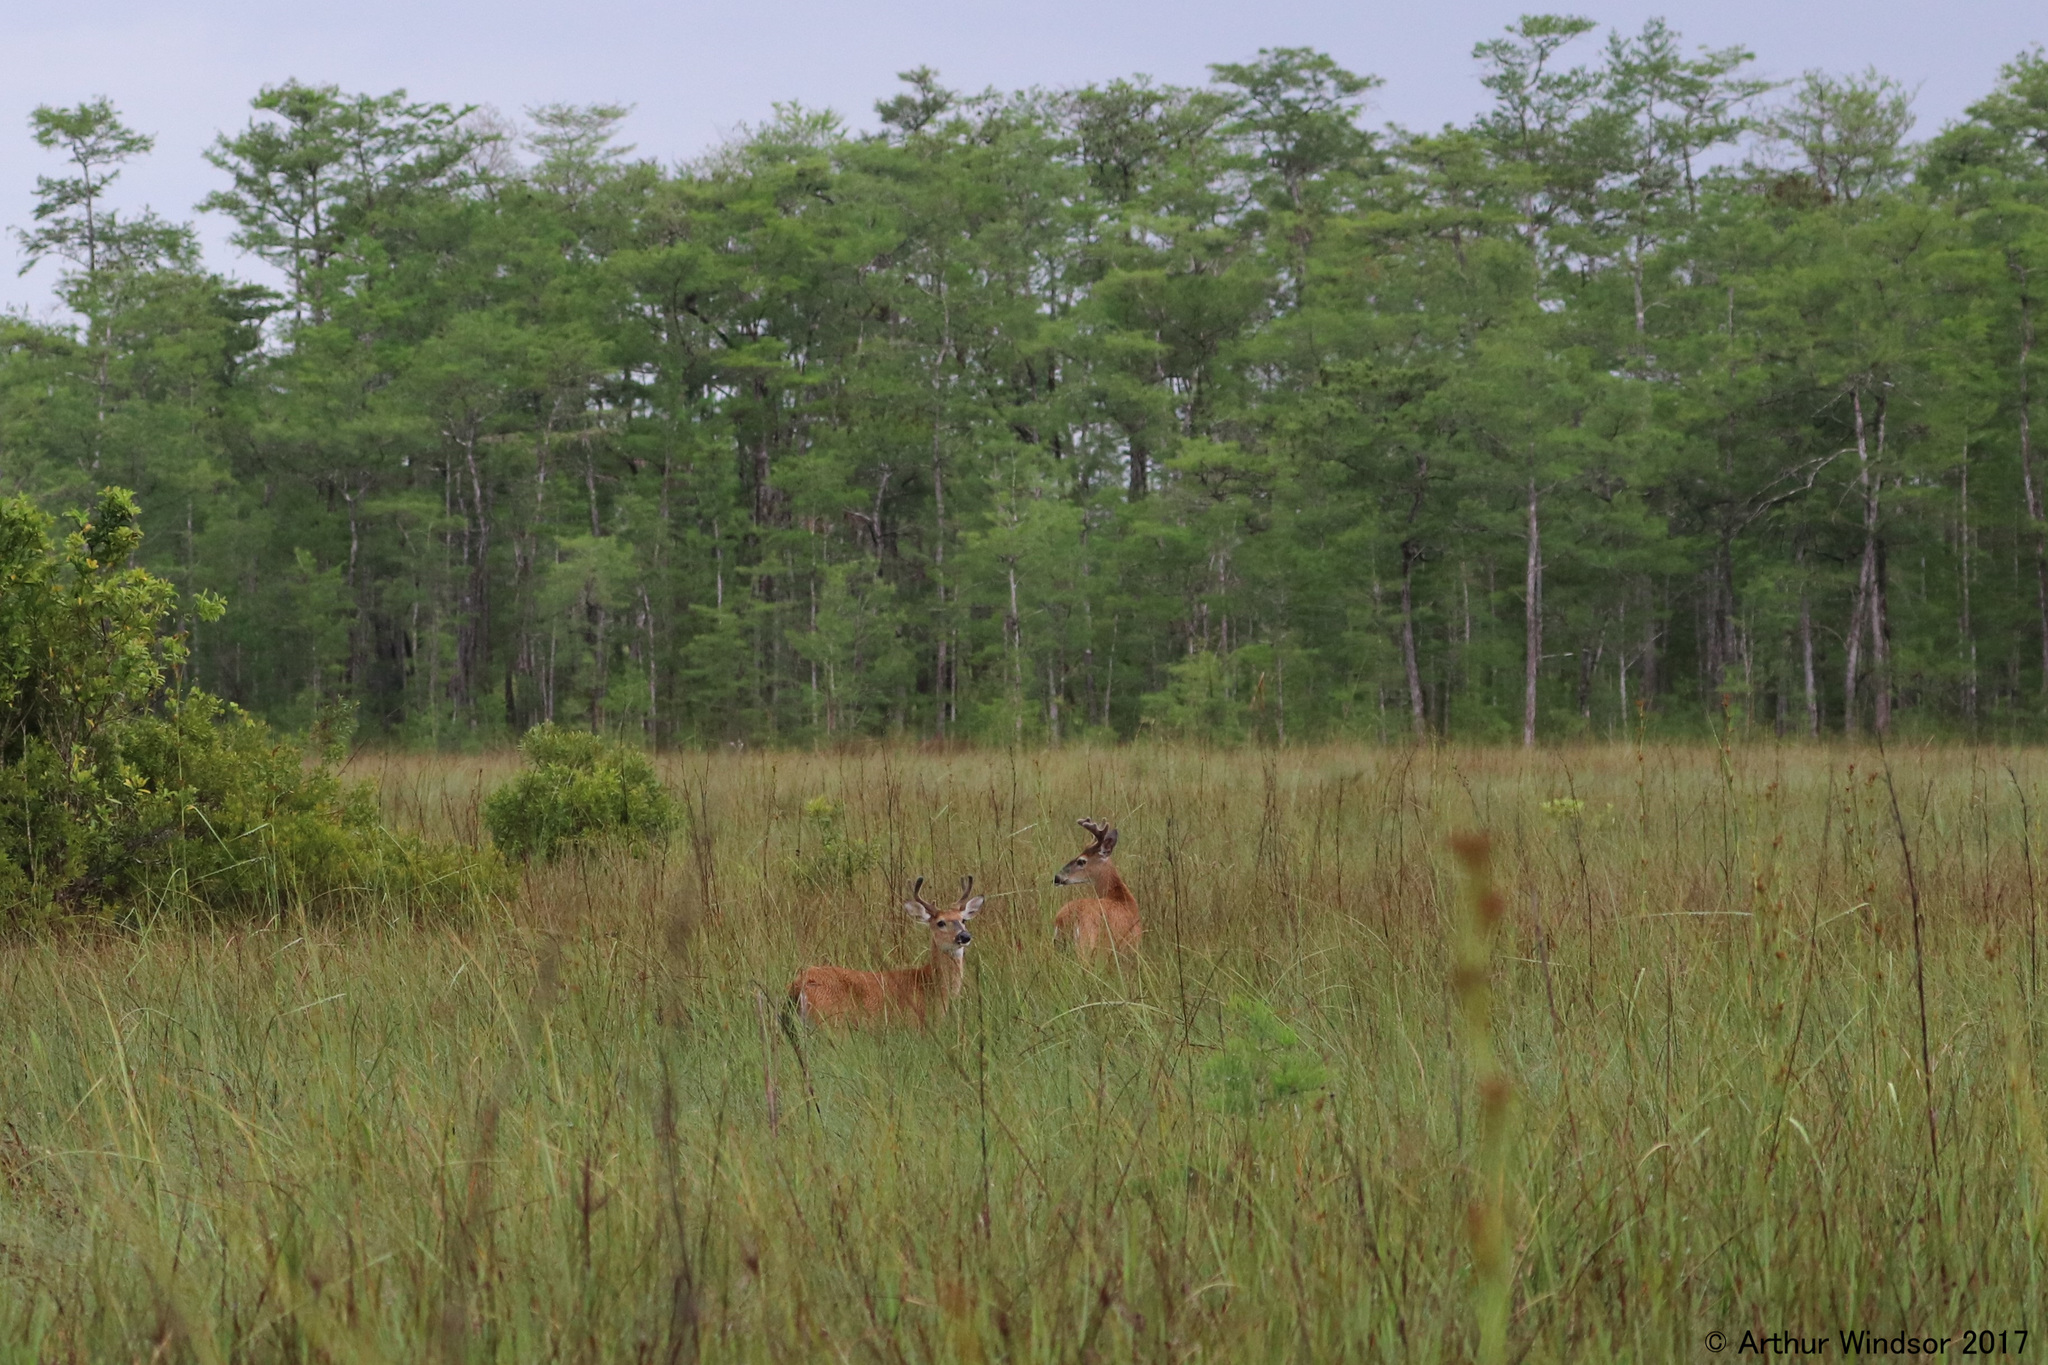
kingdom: Animalia
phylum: Chordata
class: Mammalia
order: Artiodactyla
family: Cervidae
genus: Odocoileus
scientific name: Odocoileus virginianus
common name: White-tailed deer
